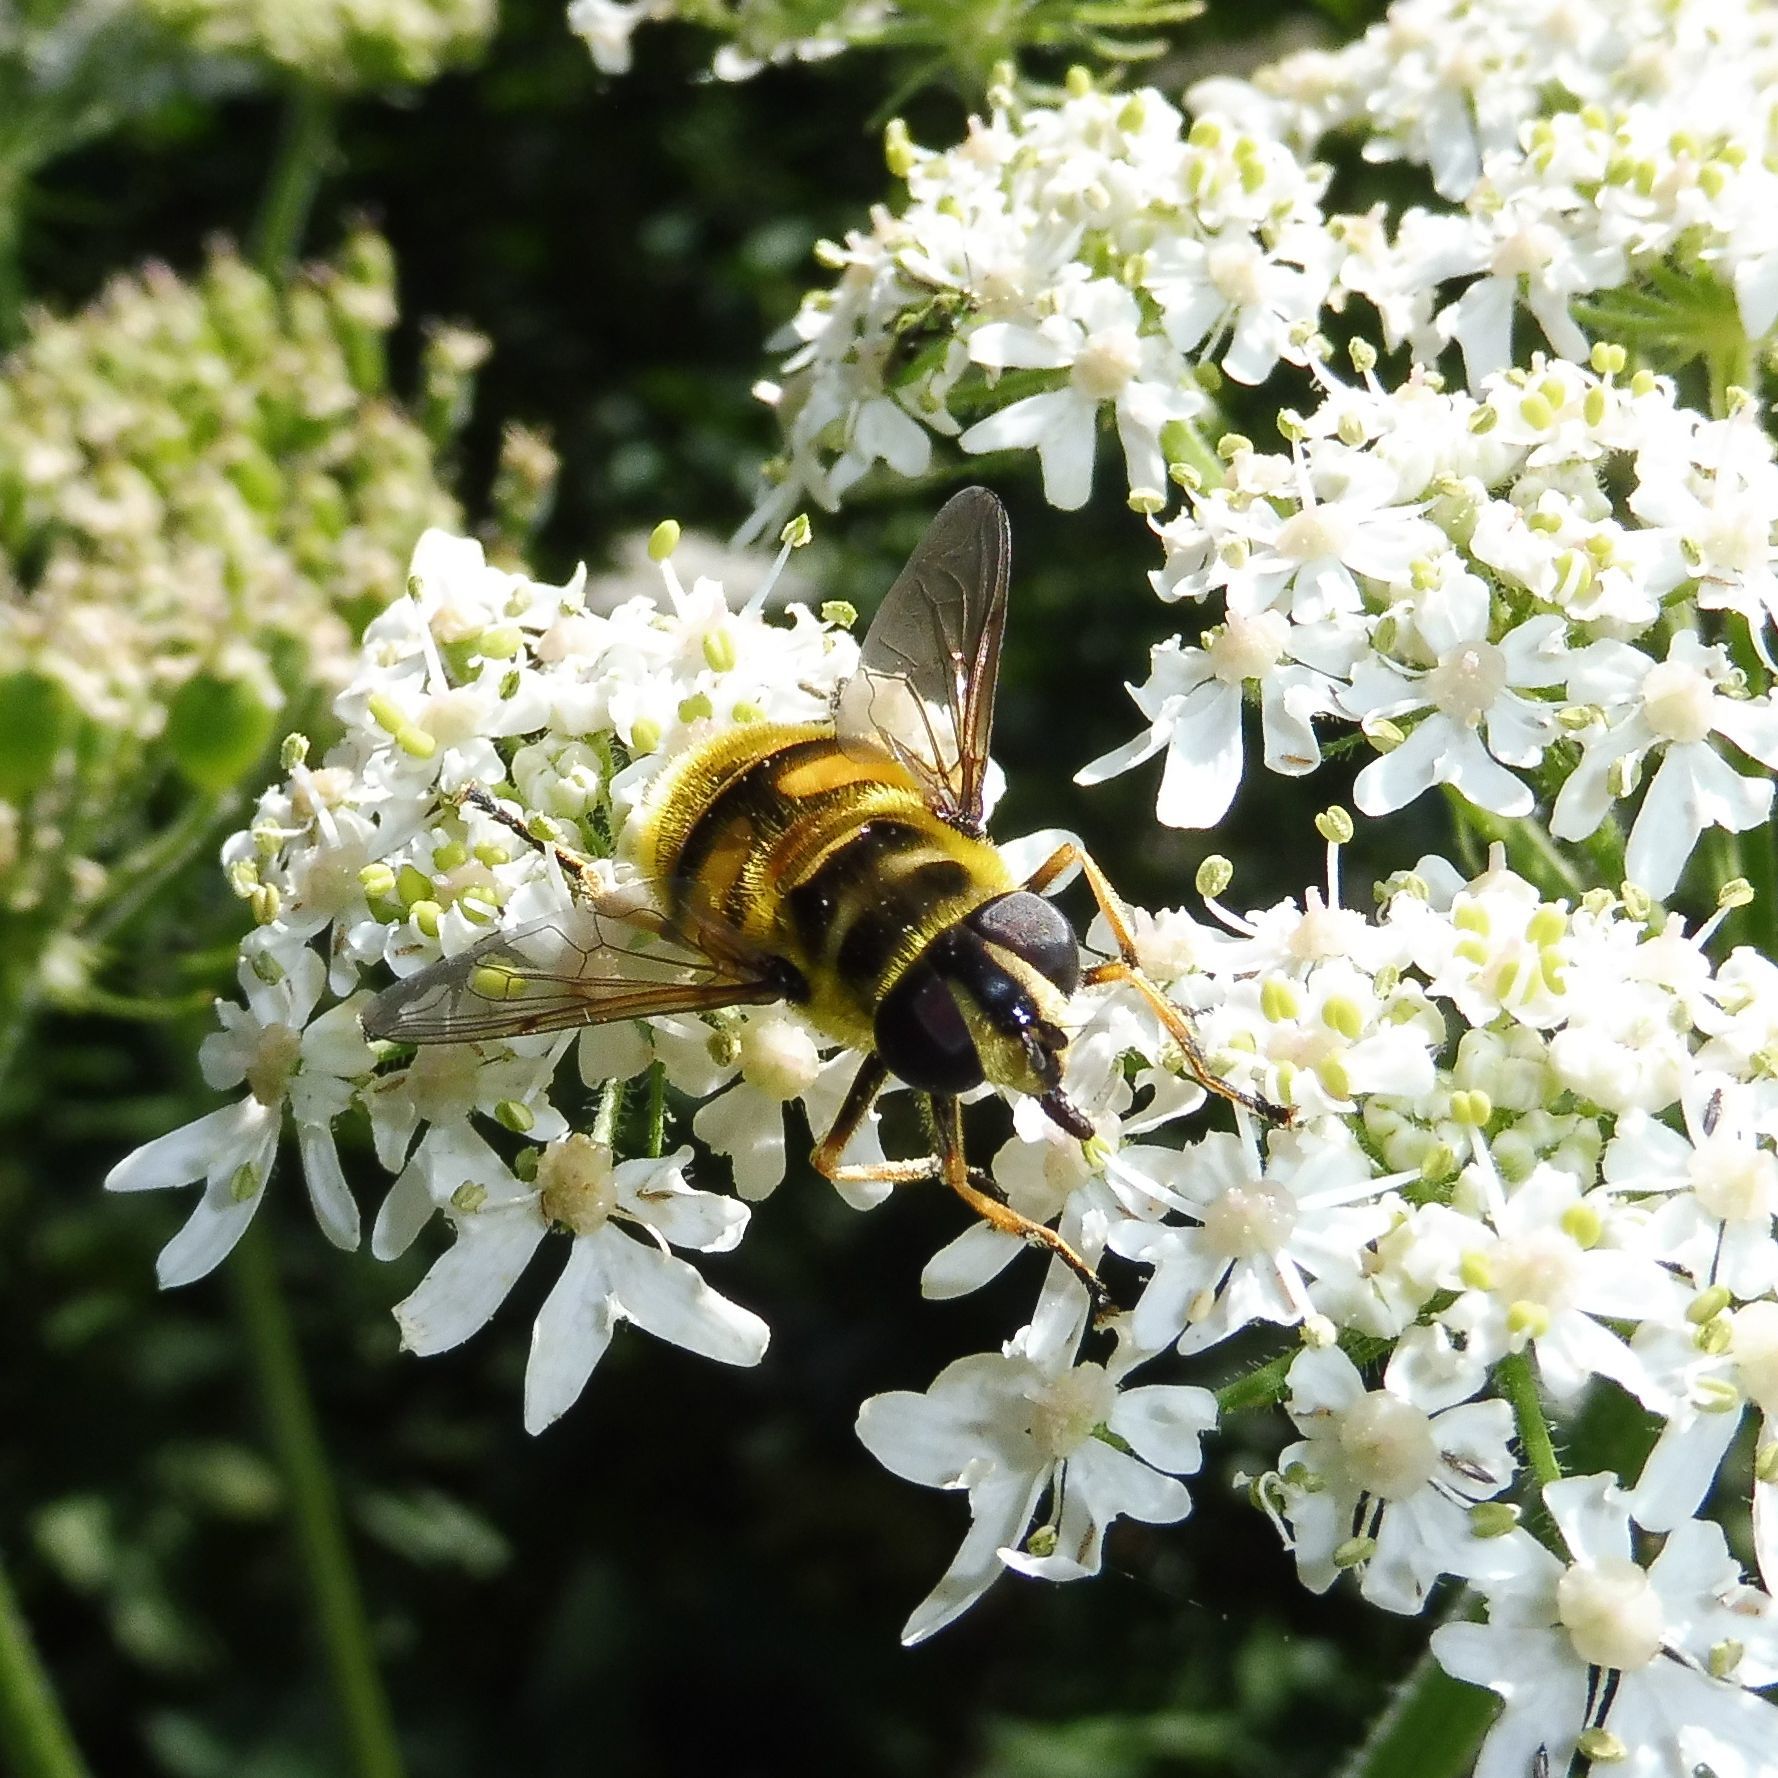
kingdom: Animalia
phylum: Arthropoda
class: Insecta
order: Diptera
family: Syrphidae
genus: Myathropa
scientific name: Myathropa florea
